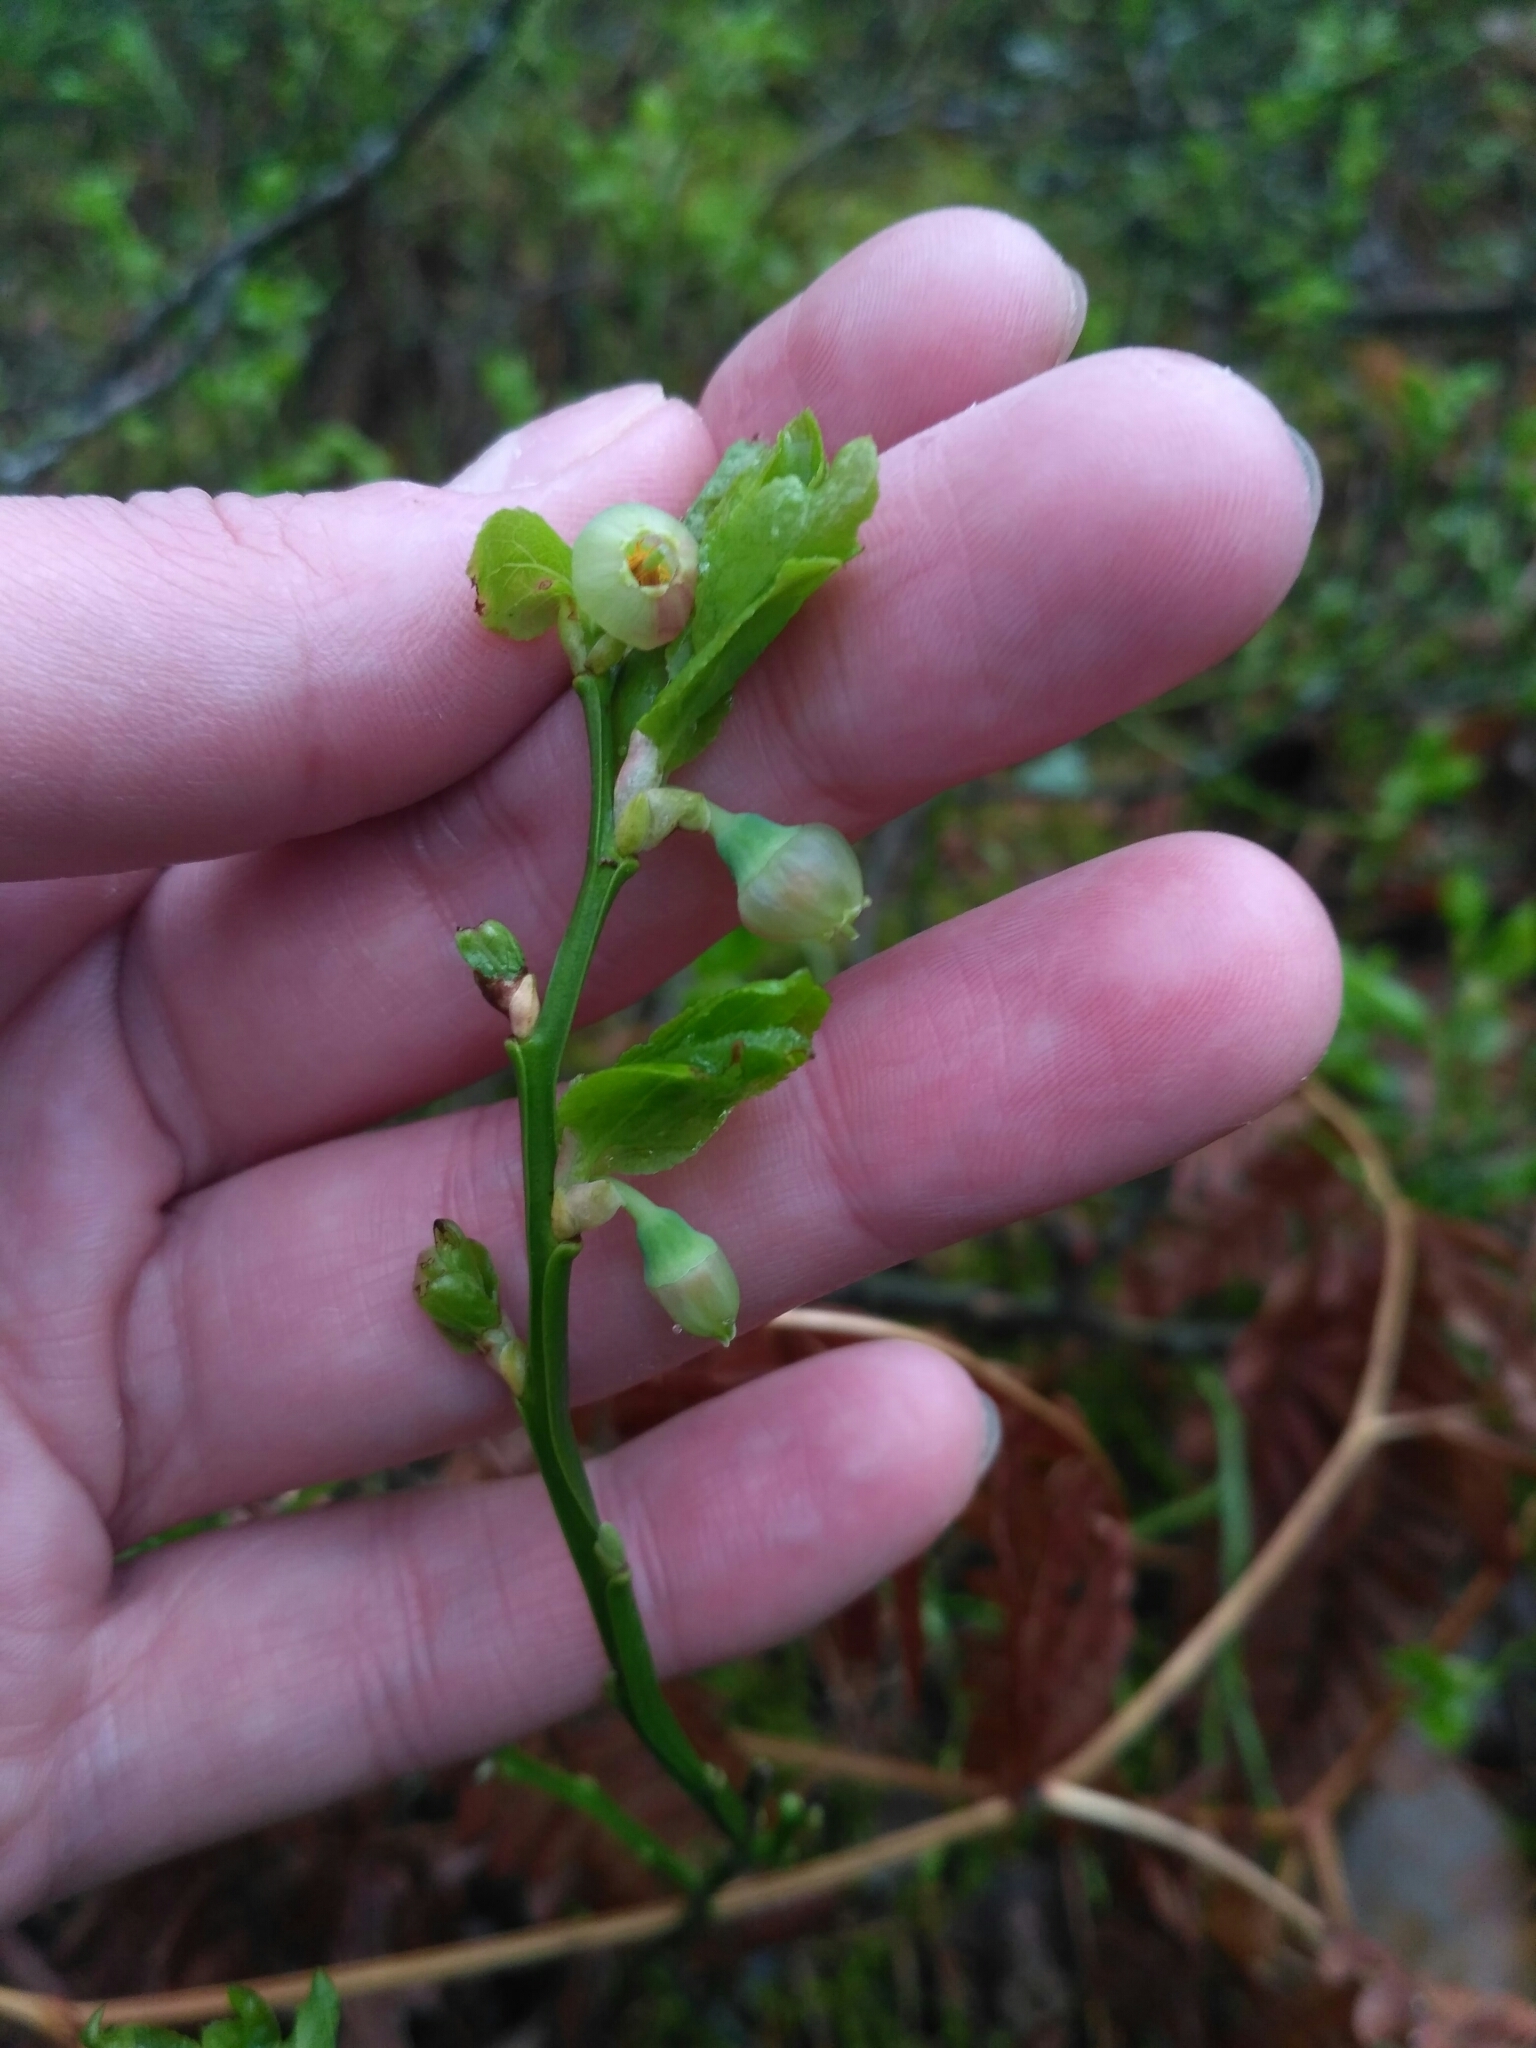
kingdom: Plantae
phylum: Tracheophyta
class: Magnoliopsida
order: Ericales
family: Ericaceae
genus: Vaccinium
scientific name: Vaccinium myrtillus
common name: Bilberry
